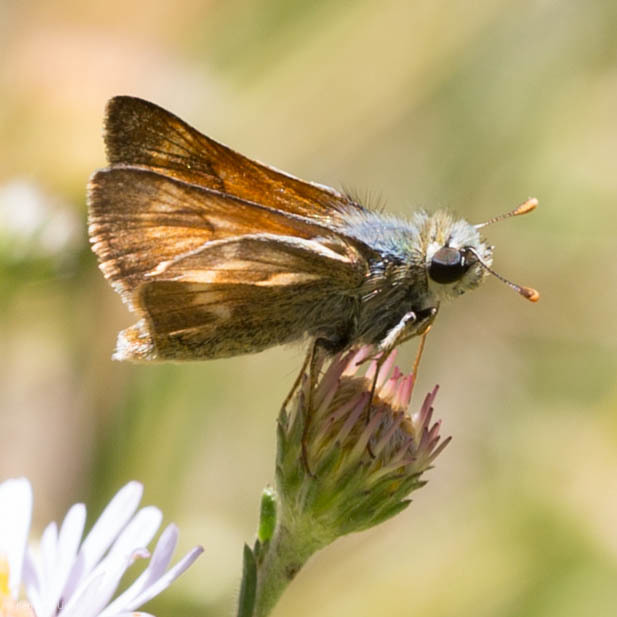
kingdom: Animalia
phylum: Arthropoda
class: Insecta
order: Lepidoptera
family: Hesperiidae
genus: Polites
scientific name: Polites mystic
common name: Long dash
